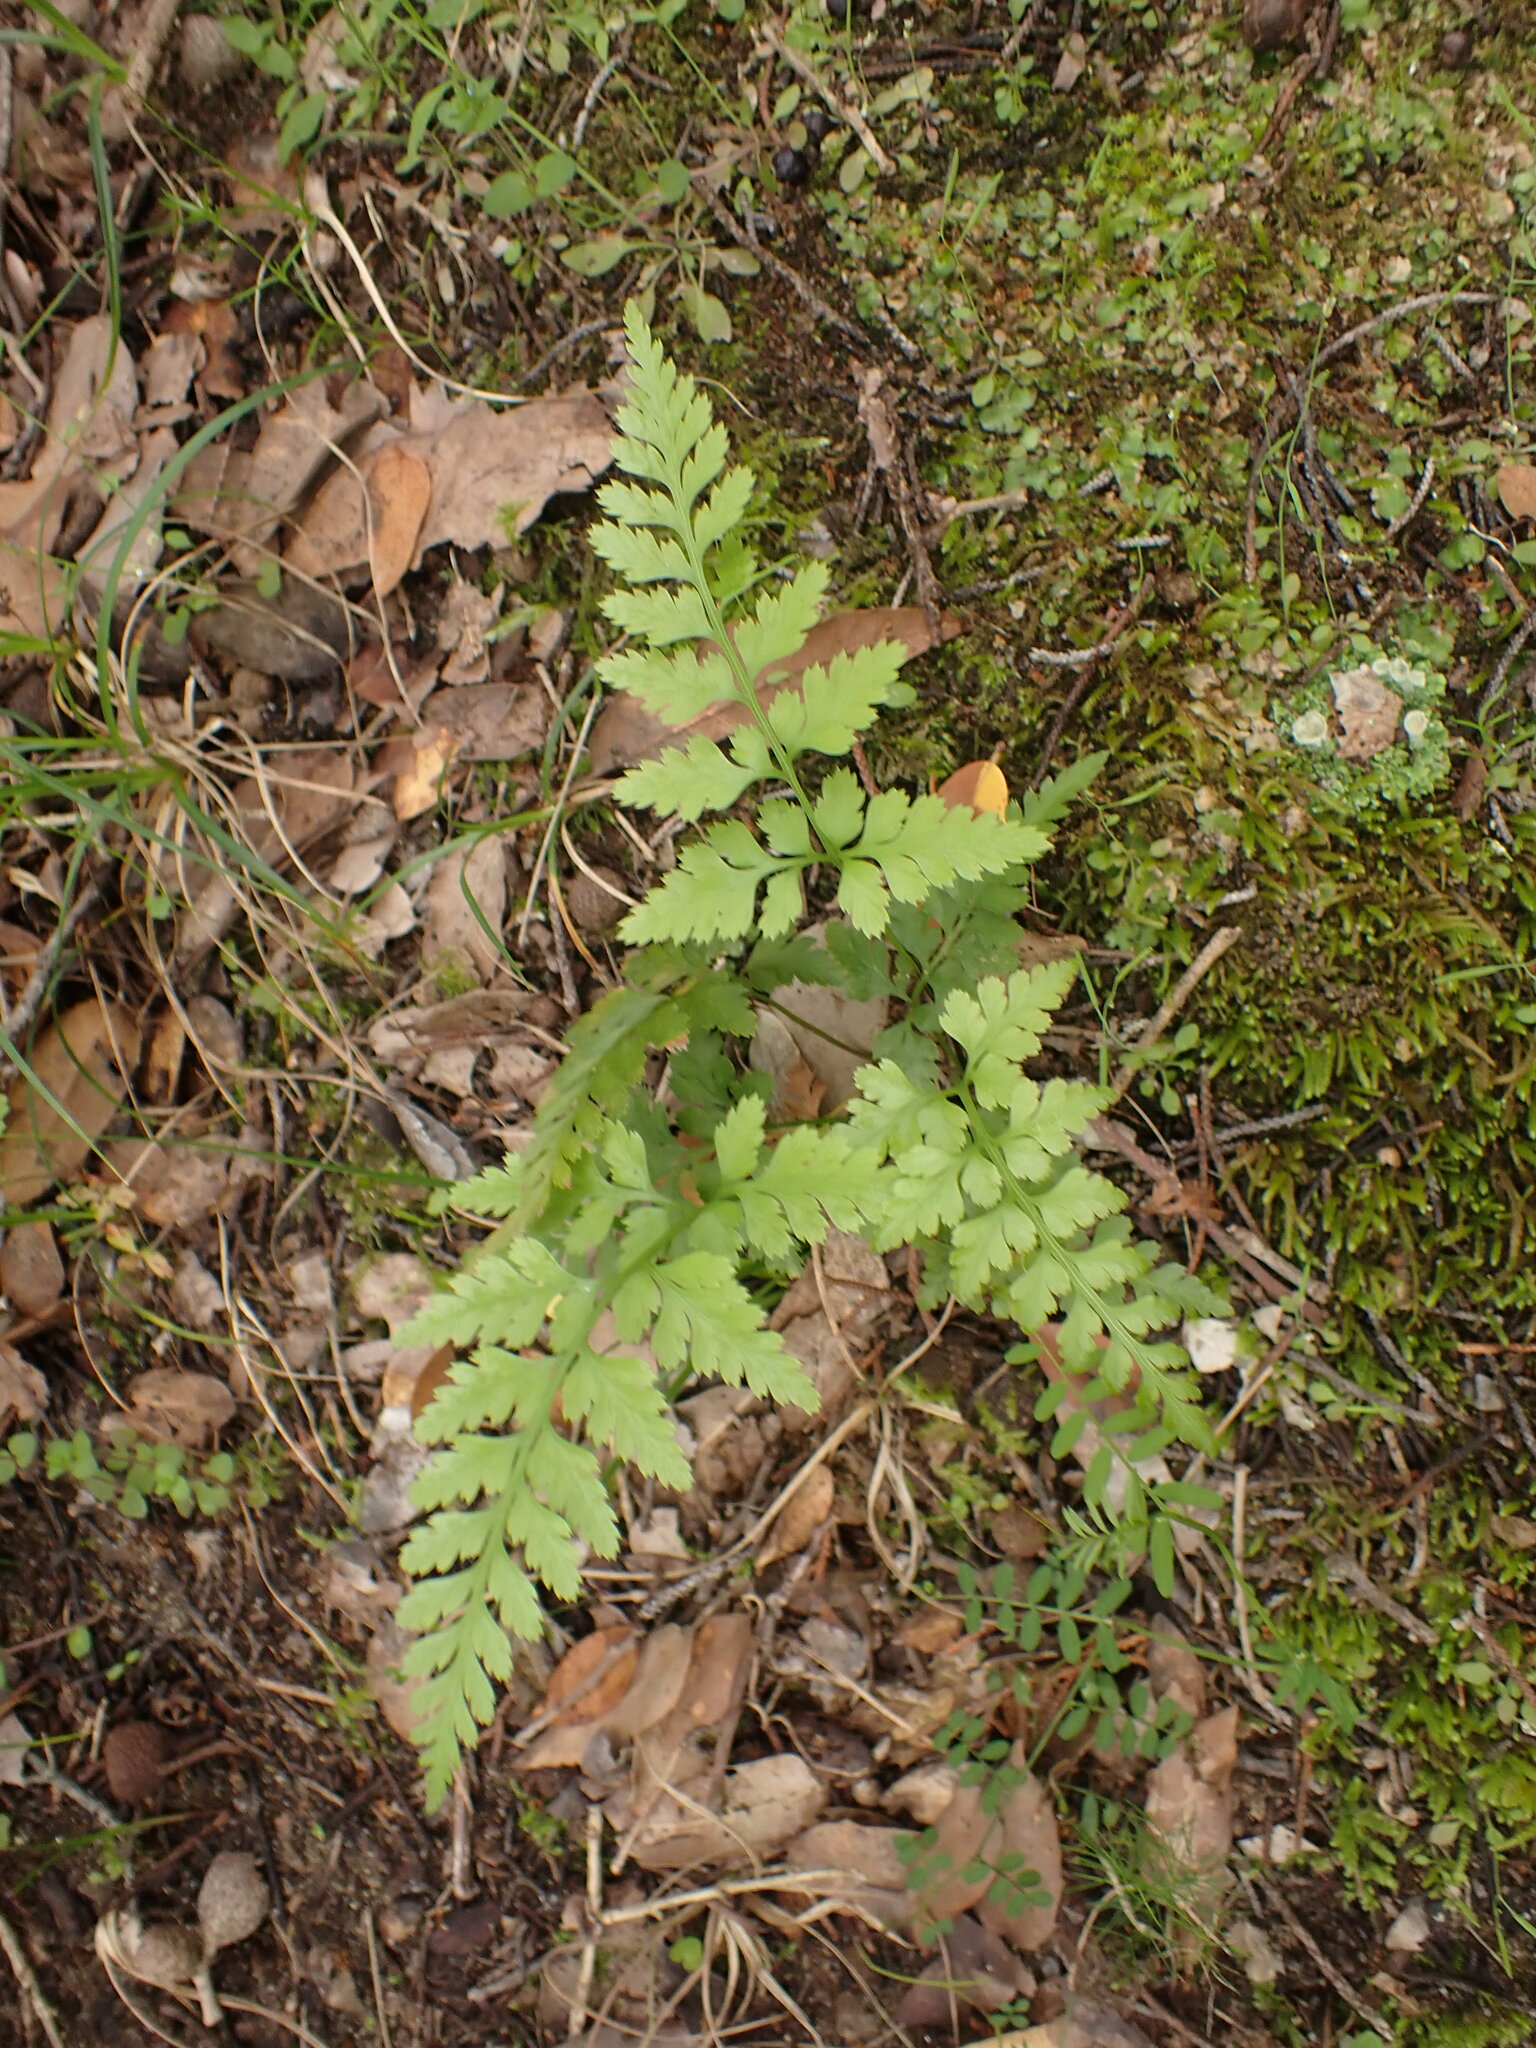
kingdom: Plantae
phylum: Tracheophyta
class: Polypodiopsida
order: Polypodiales
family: Aspleniaceae
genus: Asplenium
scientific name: Asplenium adiantum-nigrum
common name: Black spleenwort
